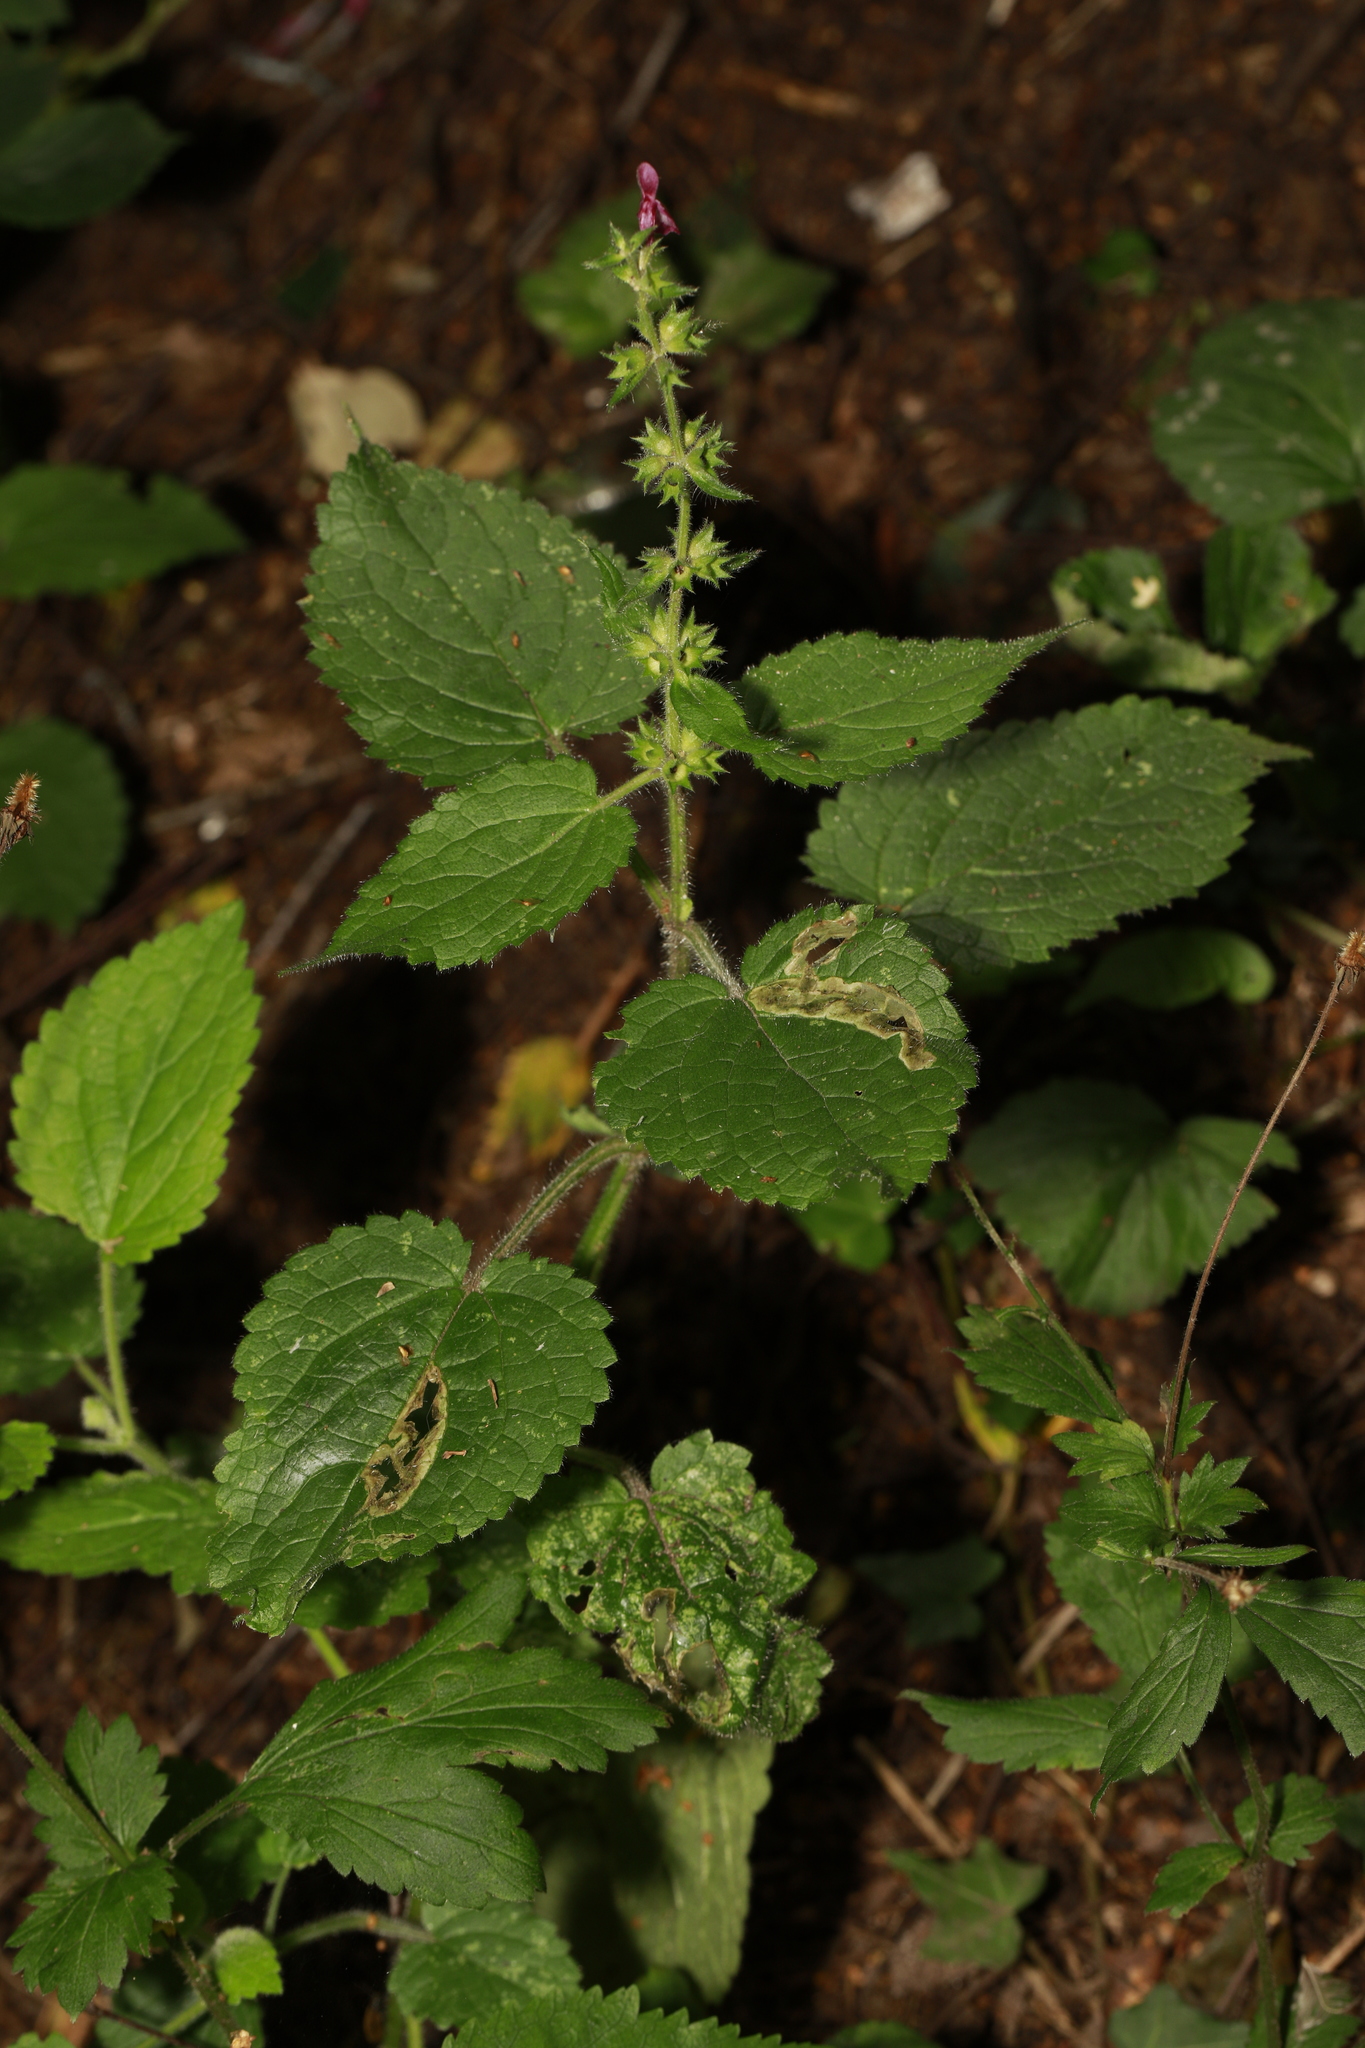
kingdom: Plantae
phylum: Tracheophyta
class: Magnoliopsida
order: Lamiales
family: Lamiaceae
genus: Stachys
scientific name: Stachys sylvatica
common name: Hedge woundwort
